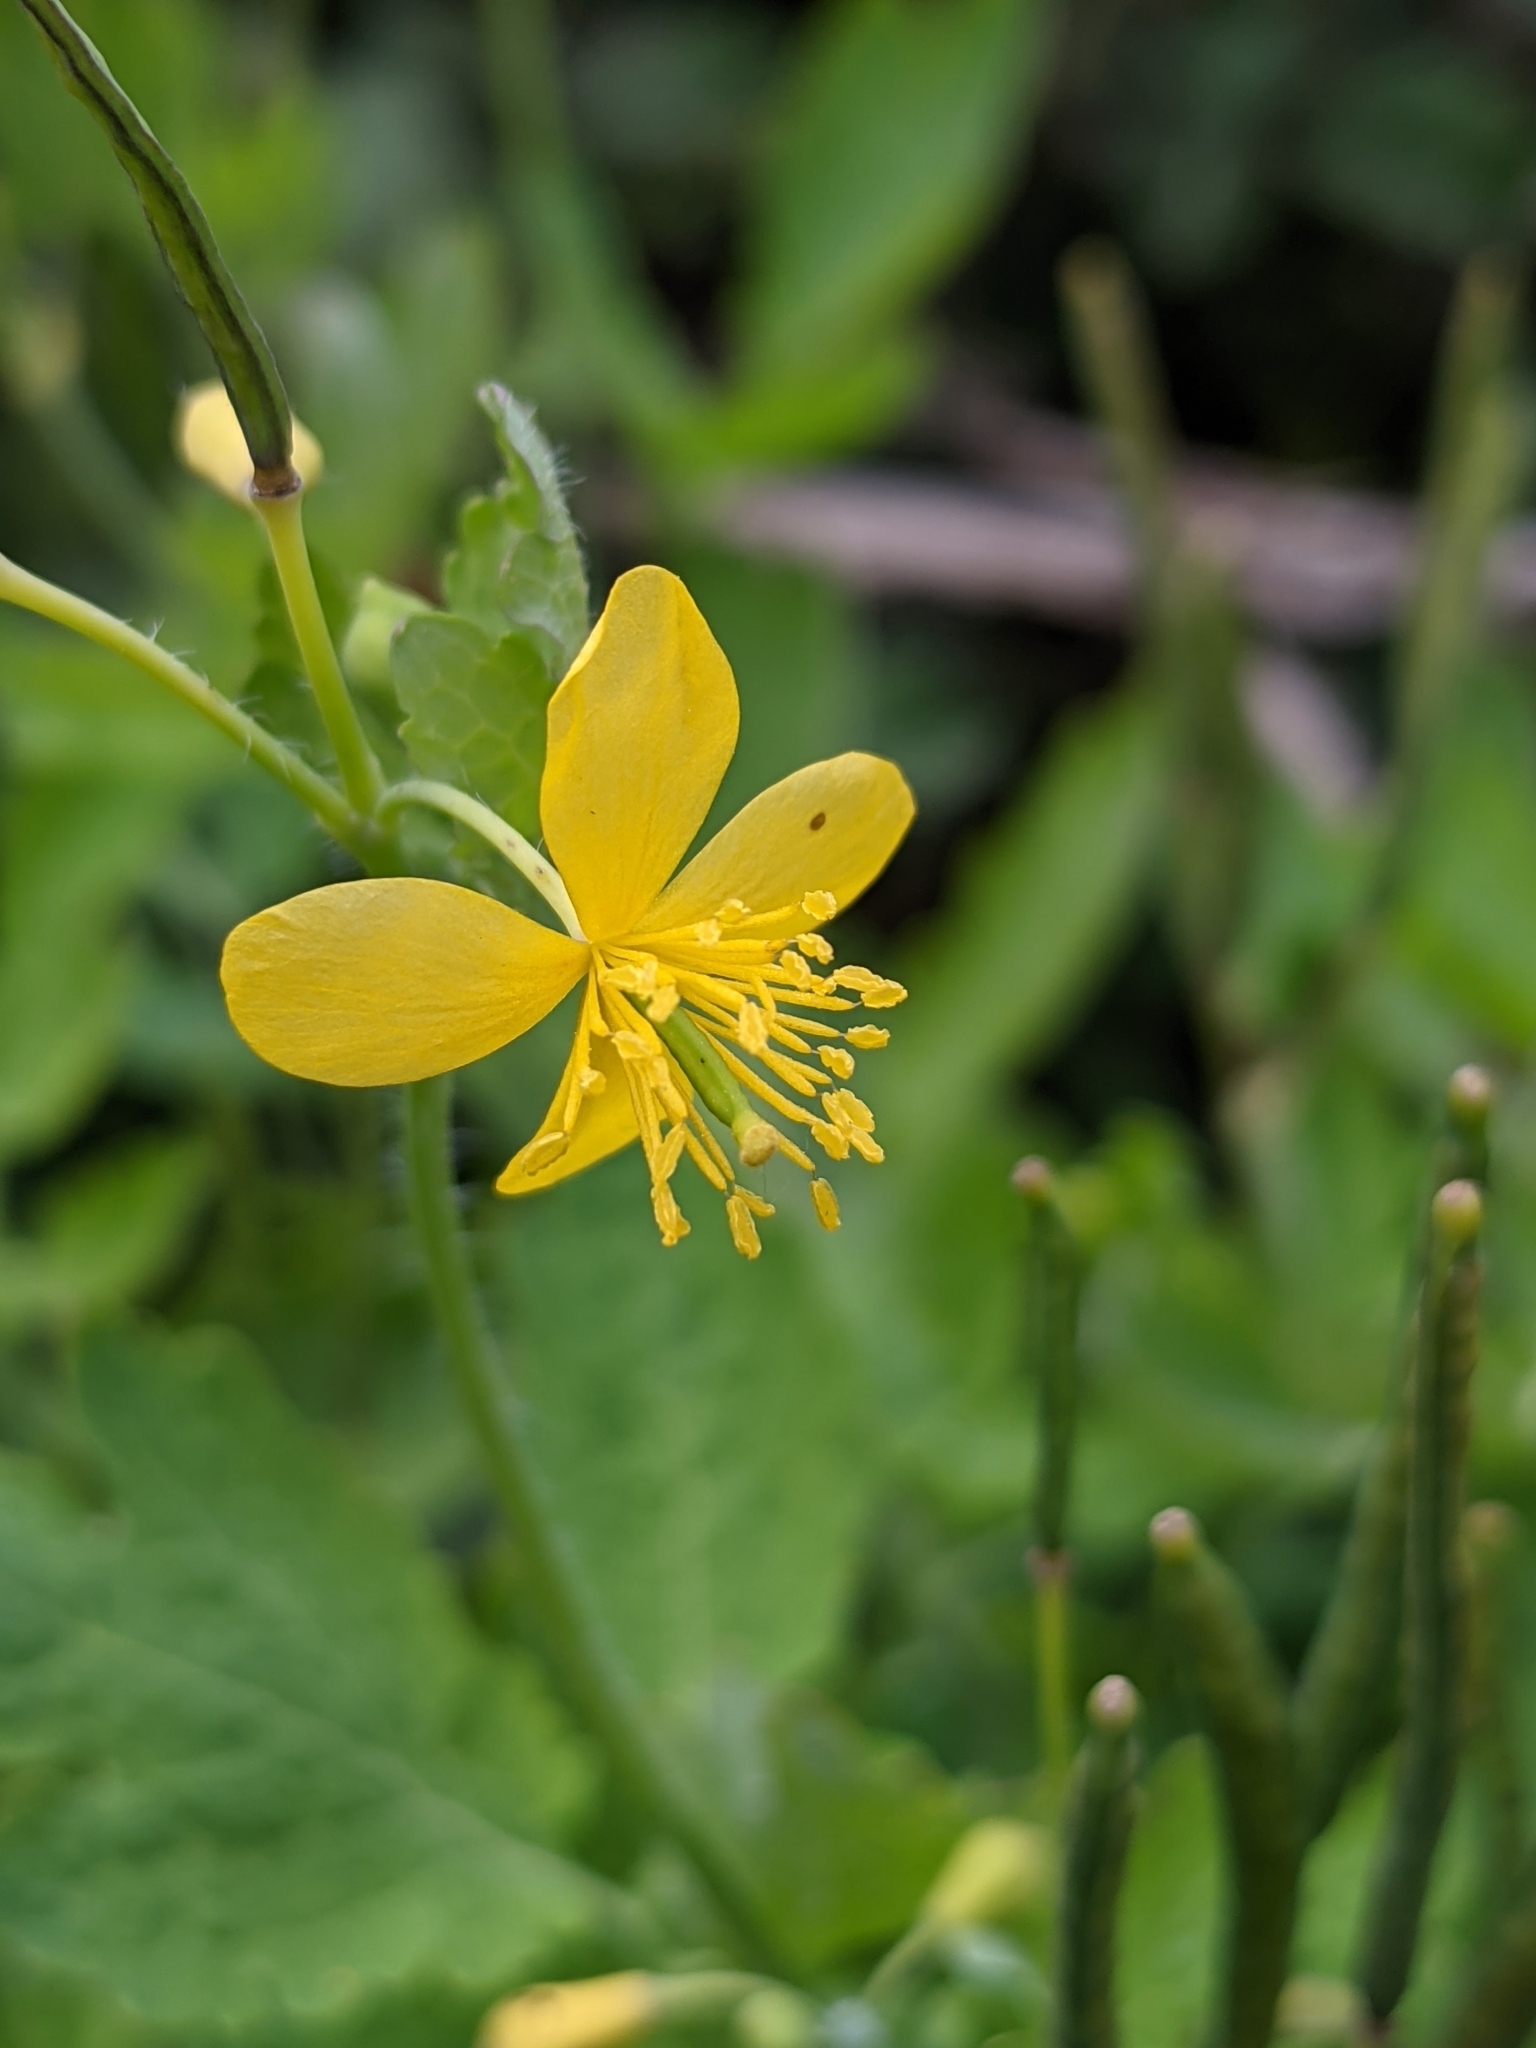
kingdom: Plantae
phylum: Tracheophyta
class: Magnoliopsida
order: Ranunculales
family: Papaveraceae
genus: Chelidonium
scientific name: Chelidonium majus
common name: Greater celandine
